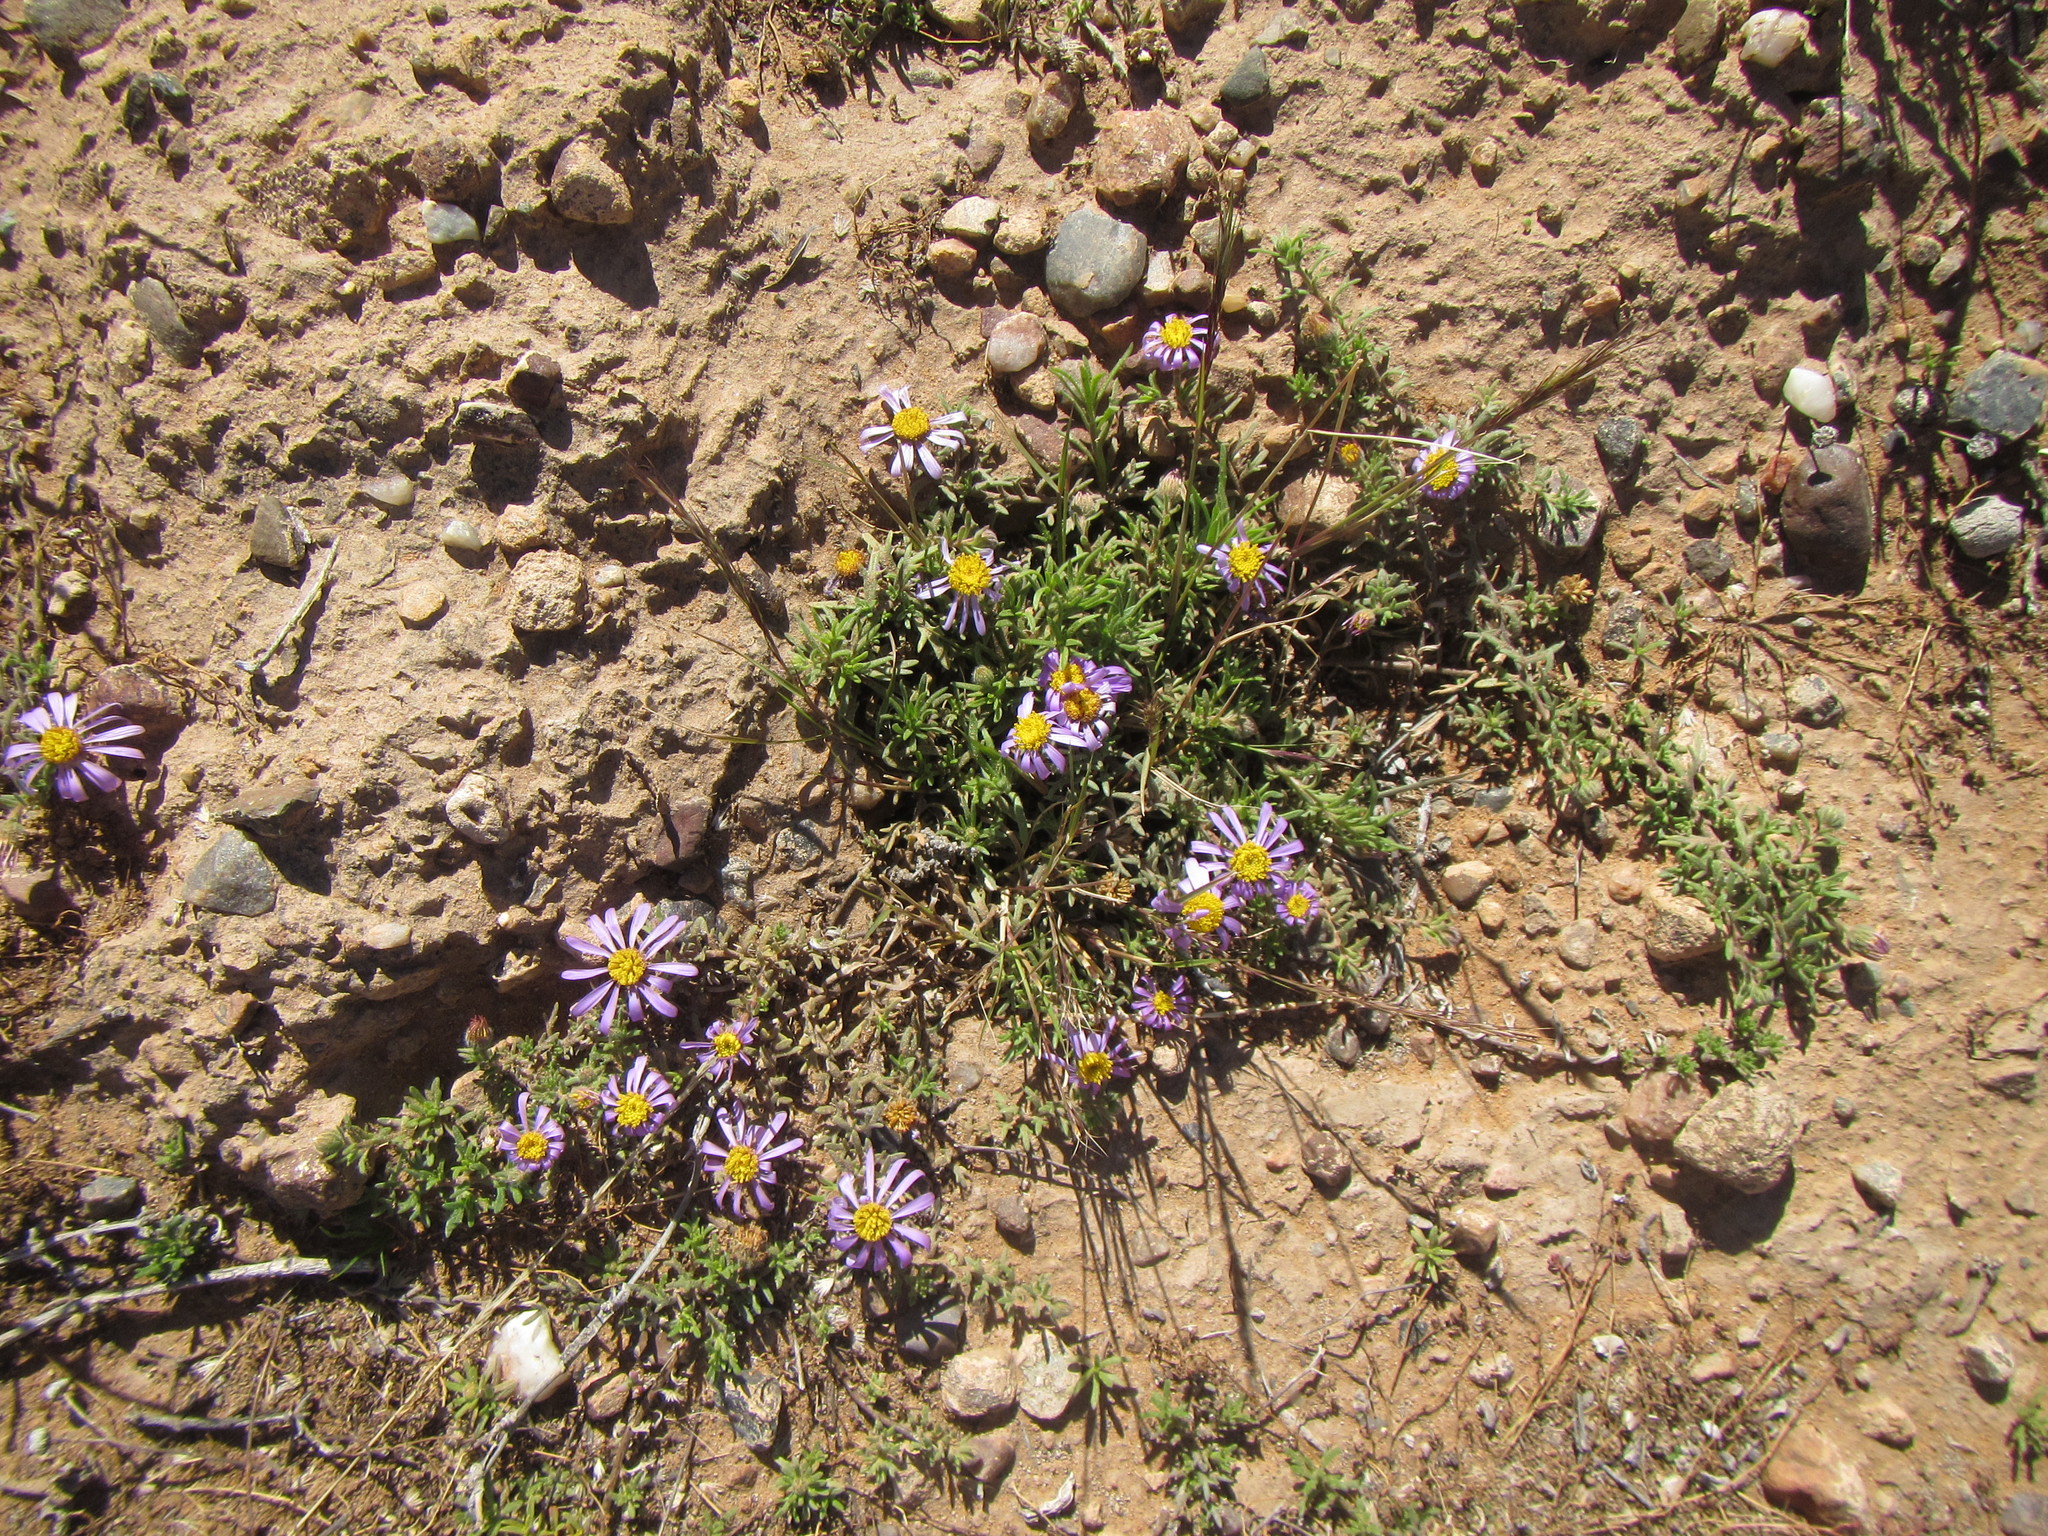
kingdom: Plantae
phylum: Tracheophyta
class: Magnoliopsida
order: Asterales
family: Asteraceae
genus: Amellus
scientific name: Amellus tridactylus
